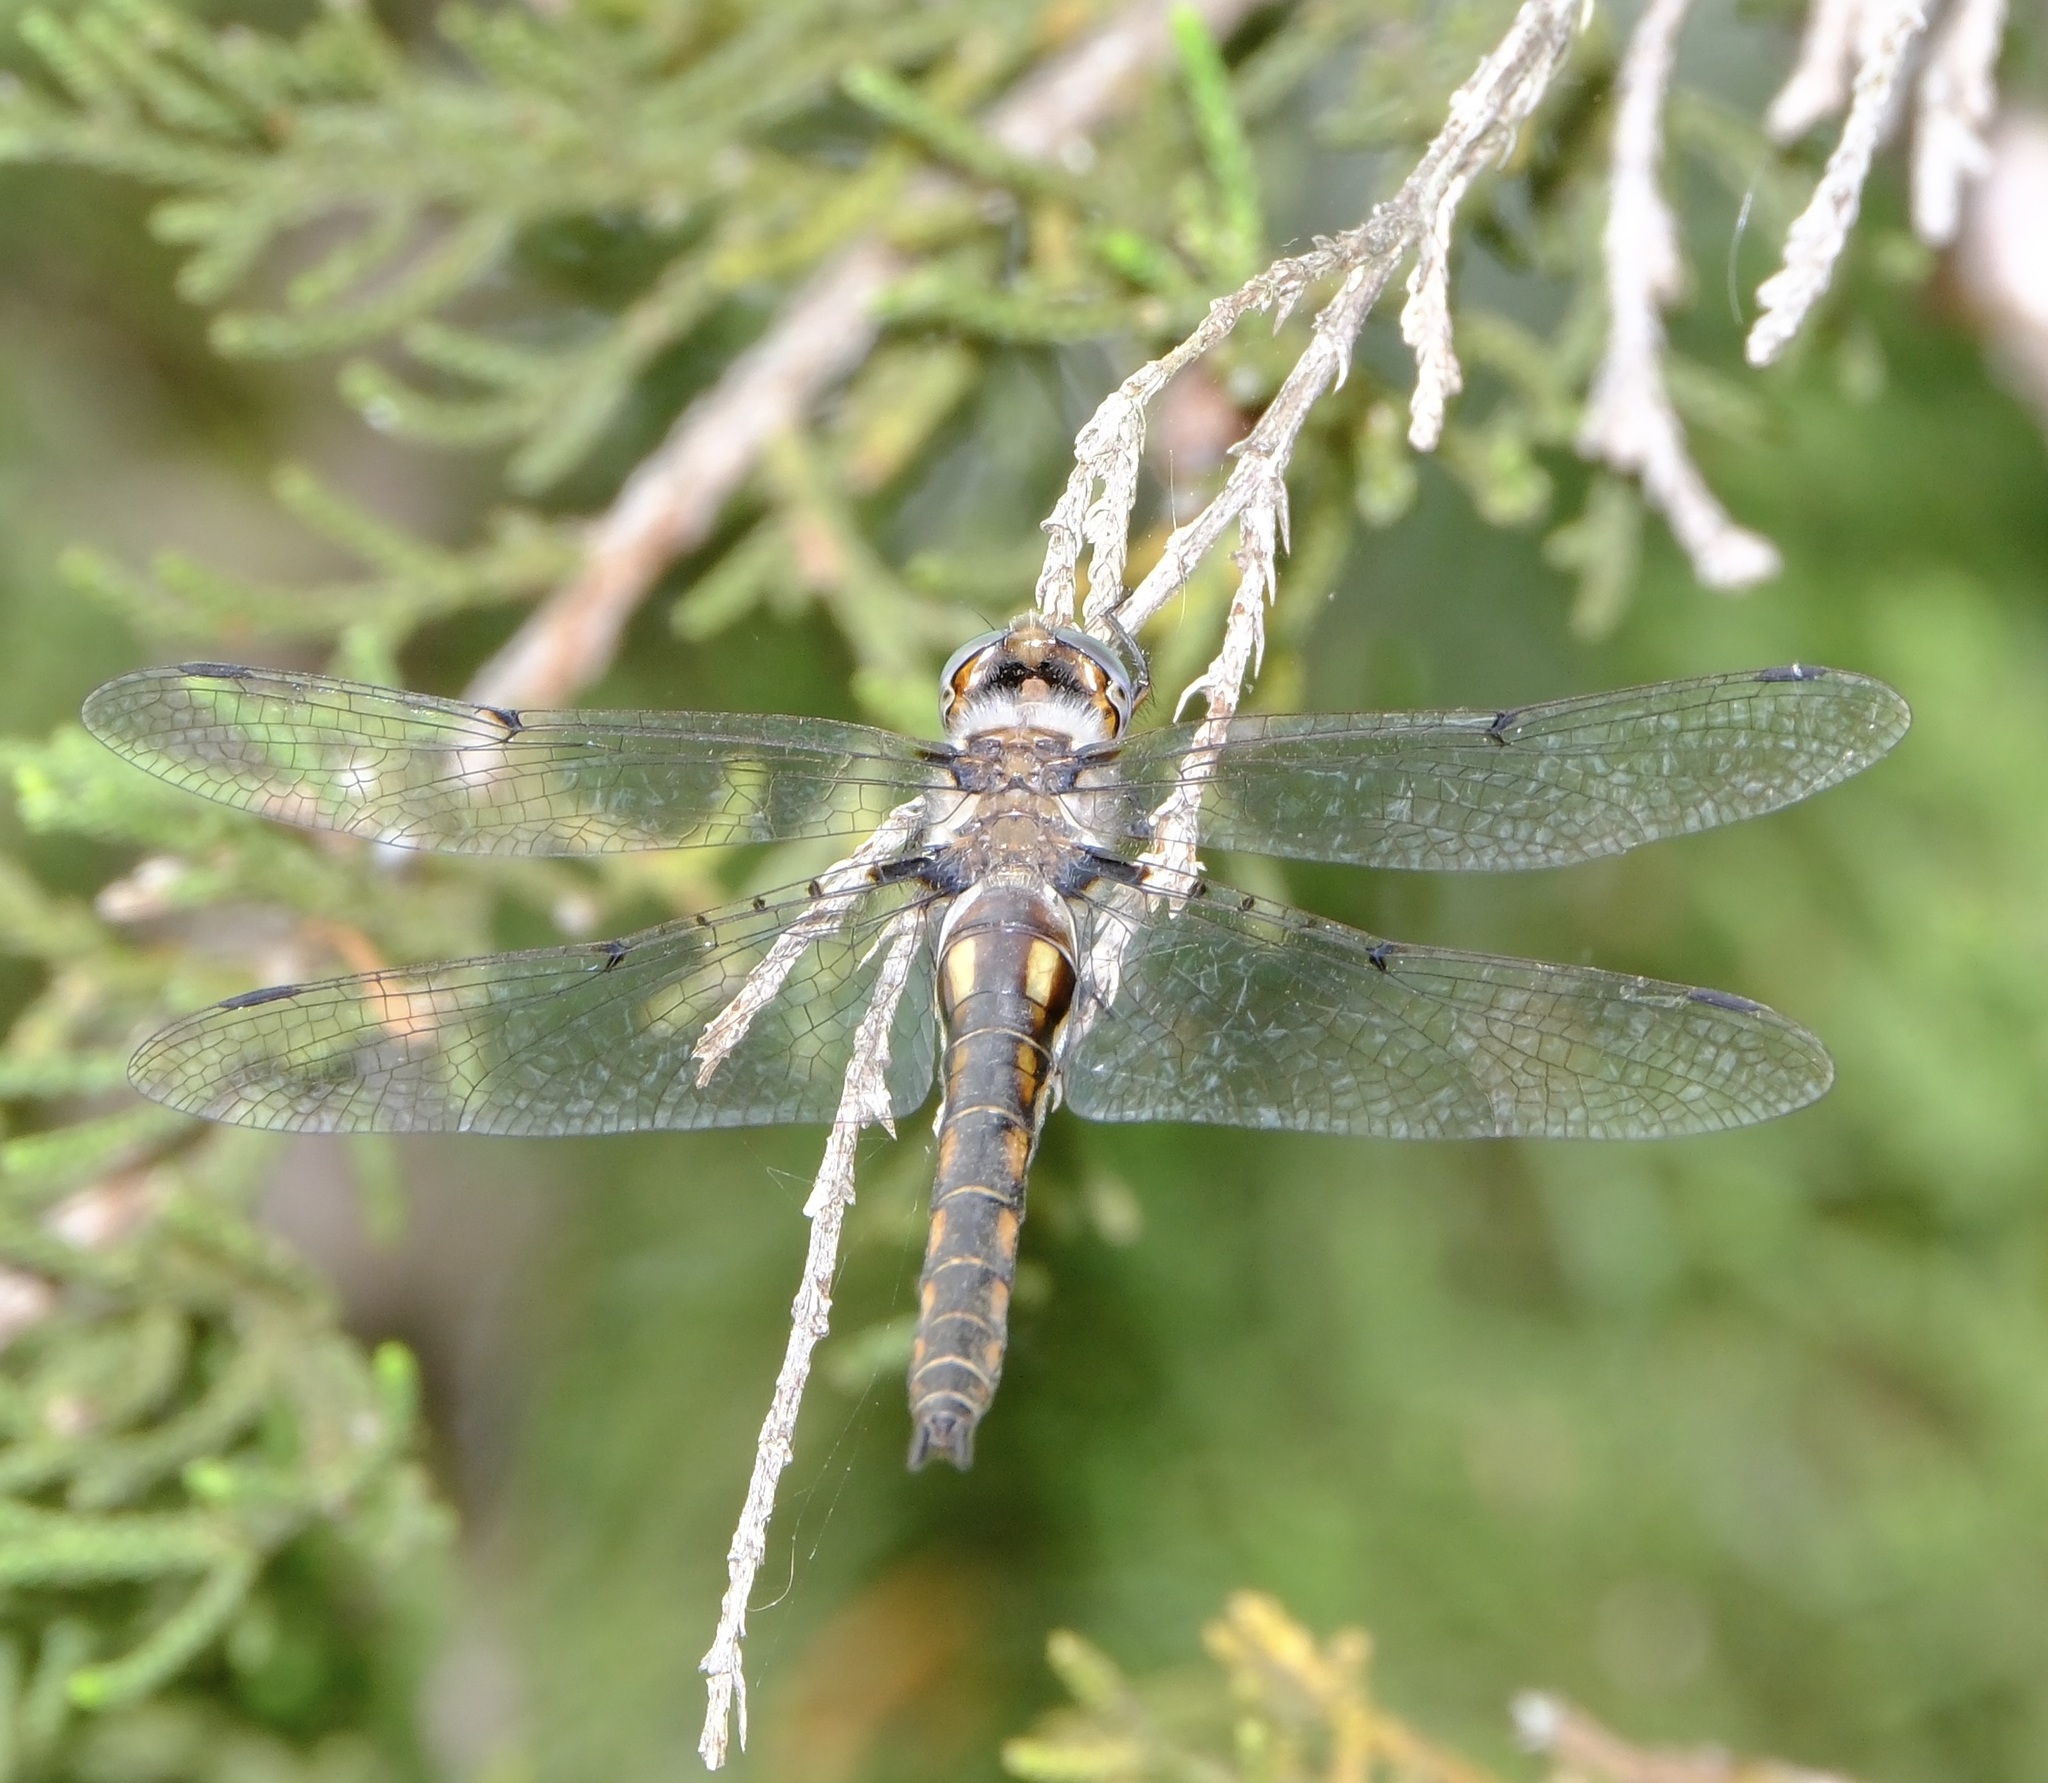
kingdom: Animalia
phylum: Arthropoda
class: Insecta
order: Odonata
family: Corduliidae
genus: Epitheca
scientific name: Epitheca petechialis
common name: Dot-winged baskettail
